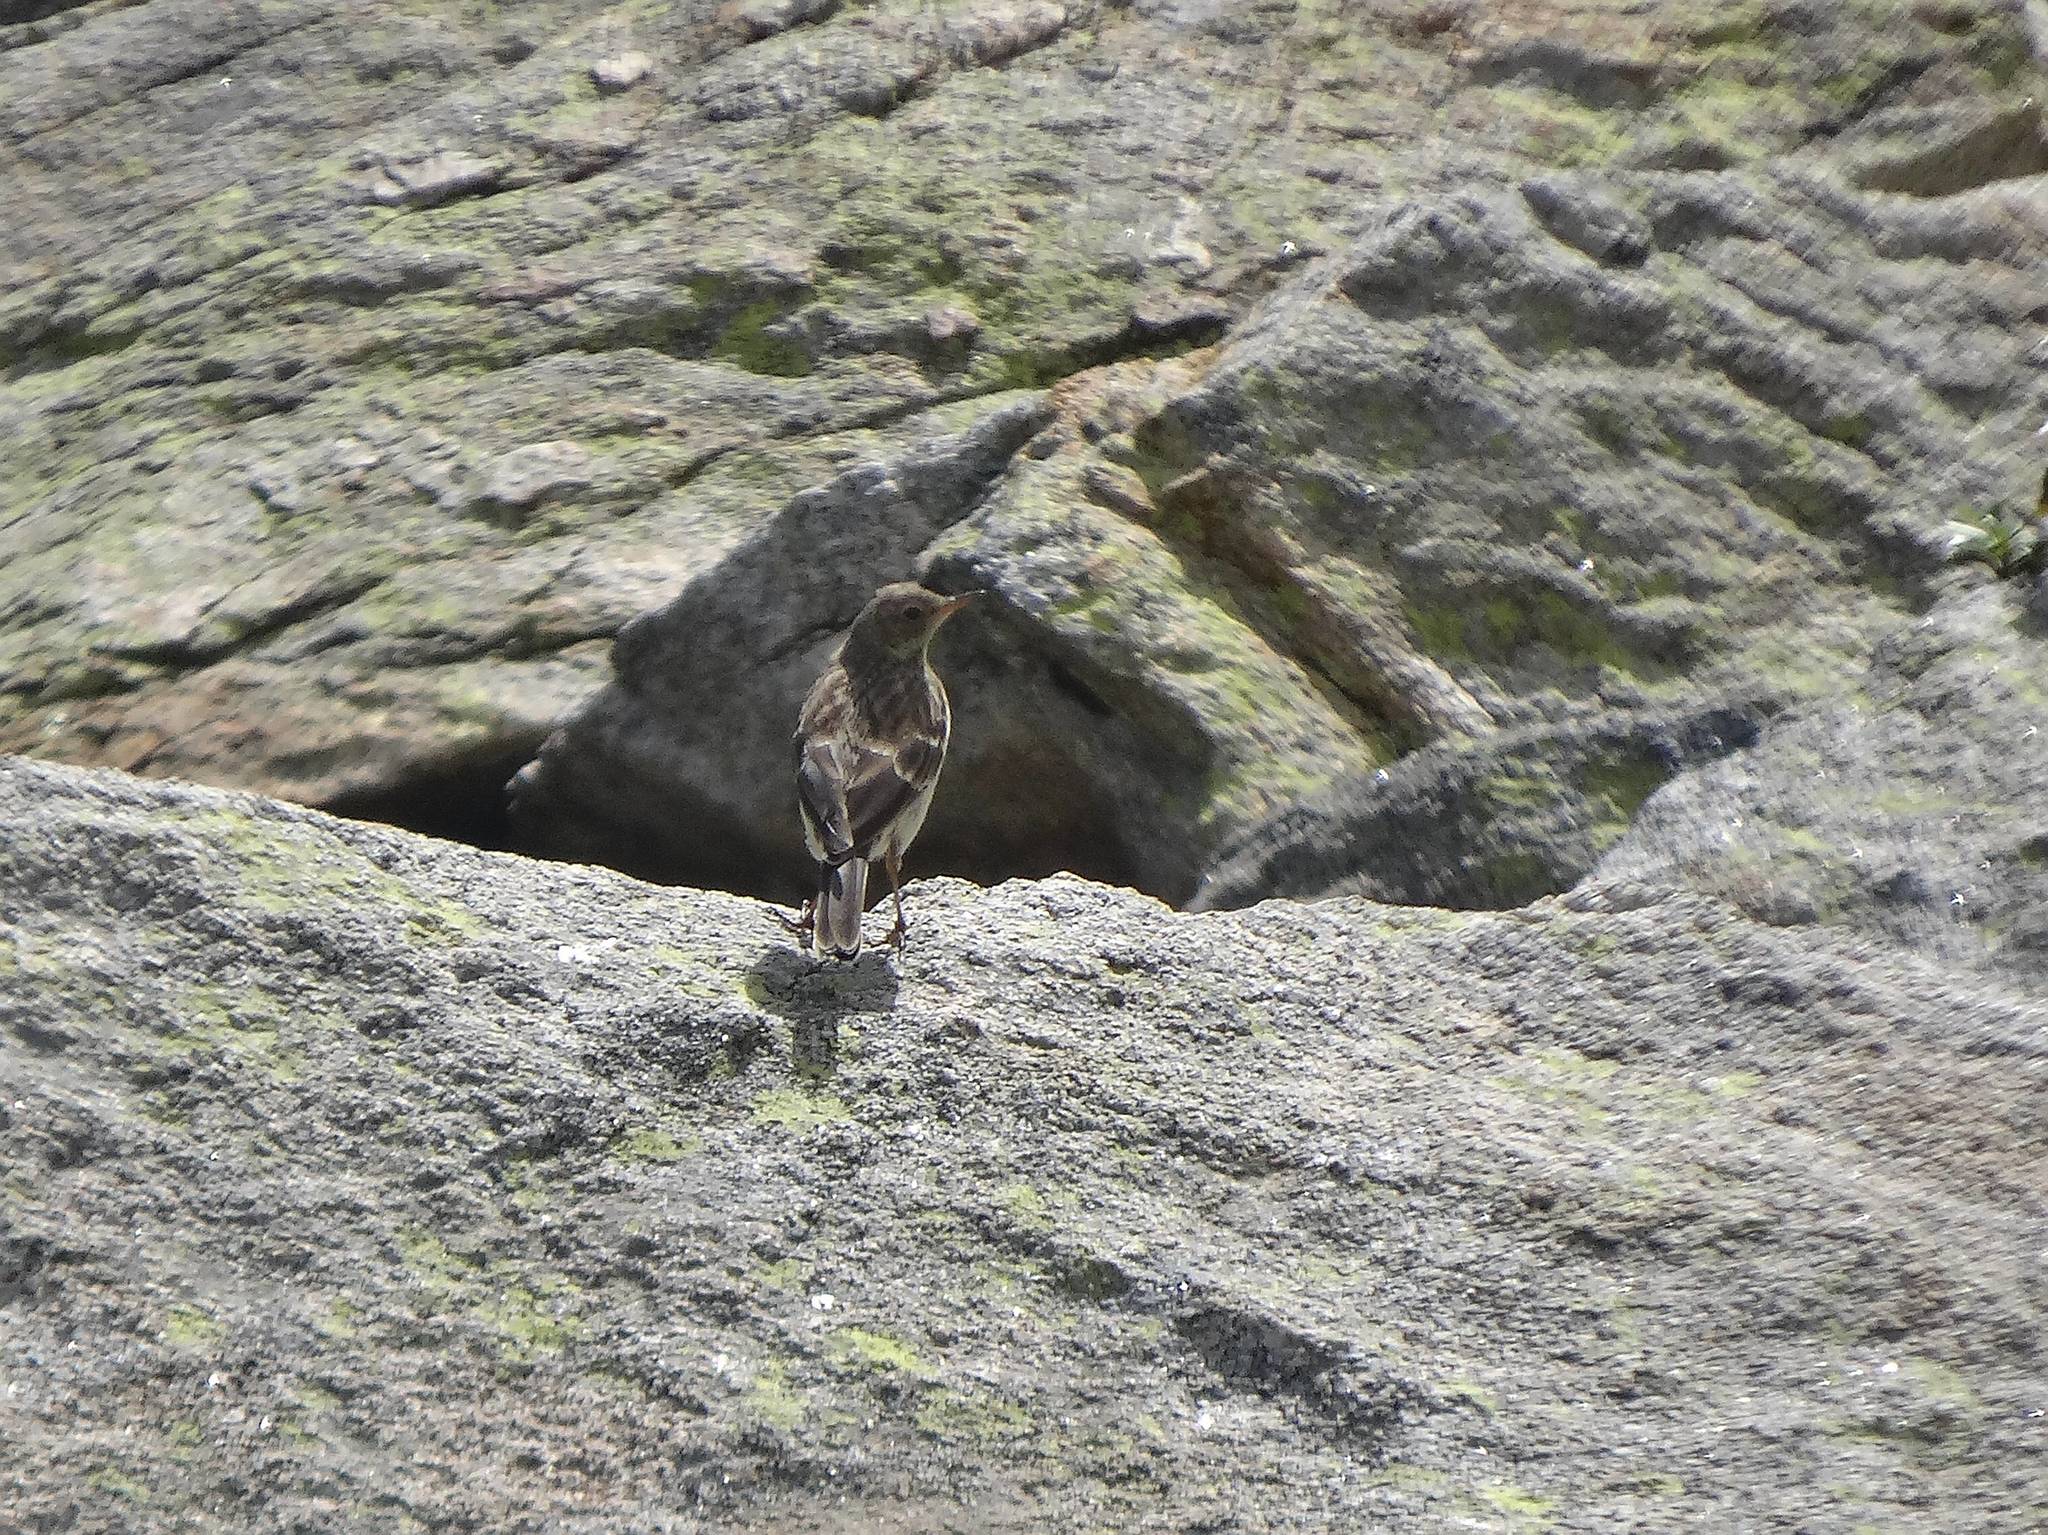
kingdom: Animalia
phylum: Chordata
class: Aves
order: Passeriformes
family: Motacillidae
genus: Anthus
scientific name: Anthus spinoletta
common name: Water pipit
